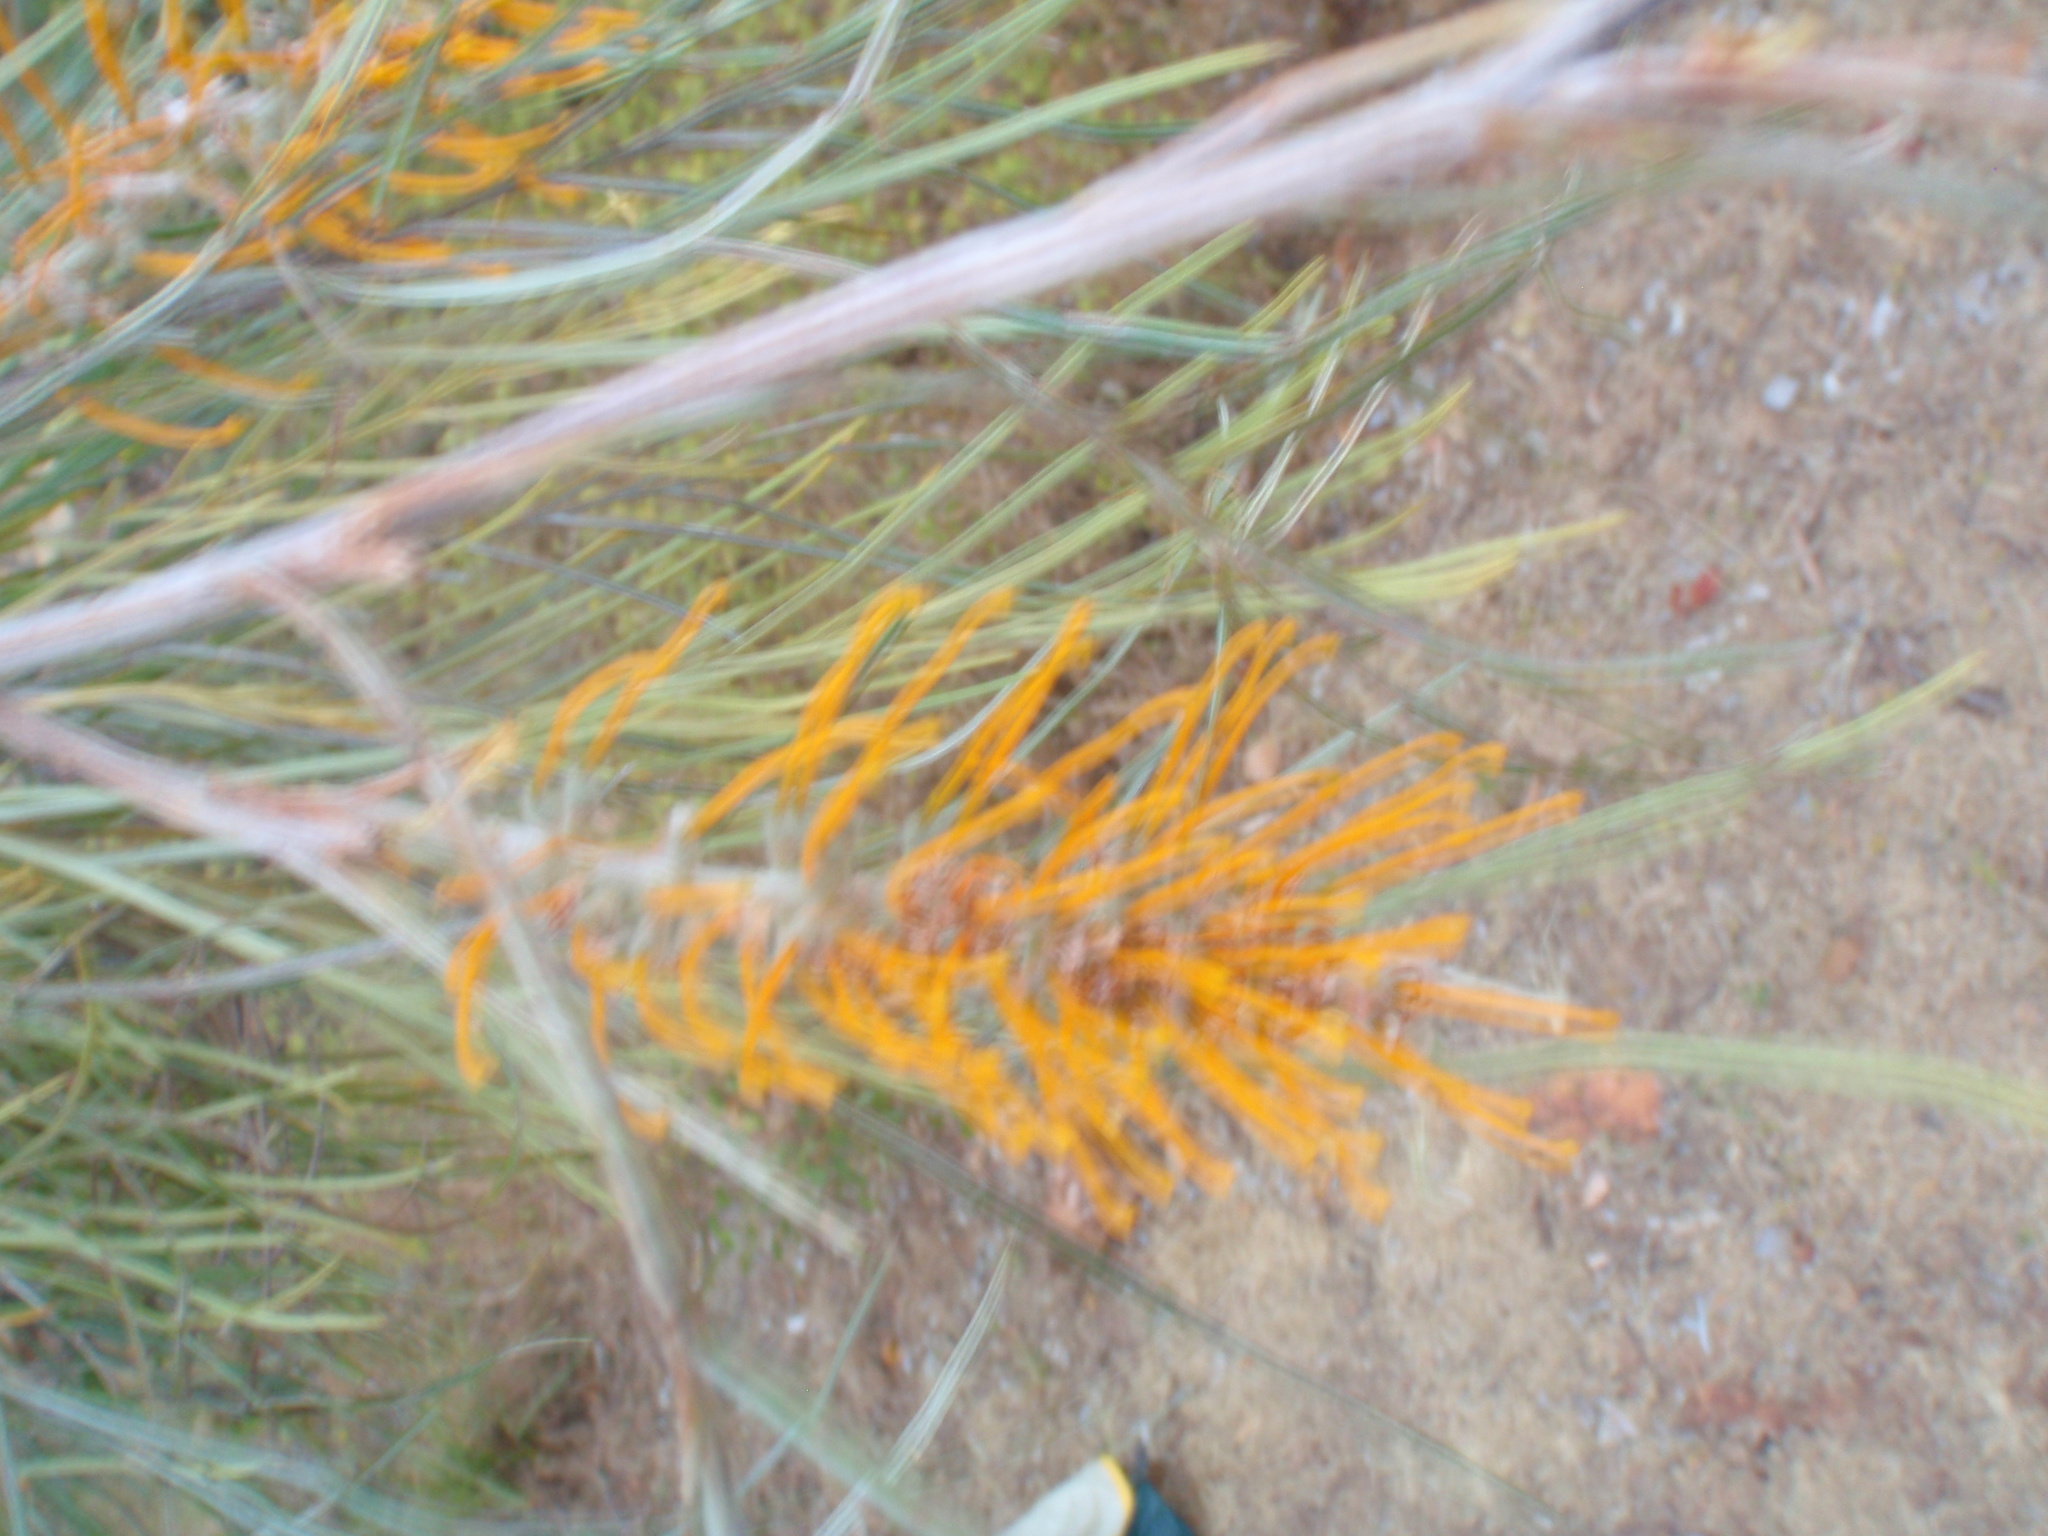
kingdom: Plantae
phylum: Tracheophyta
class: Magnoliopsida
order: Proteales
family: Proteaceae
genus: Grevillea
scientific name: Grevillea pteridifolia
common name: Golden grevillea
